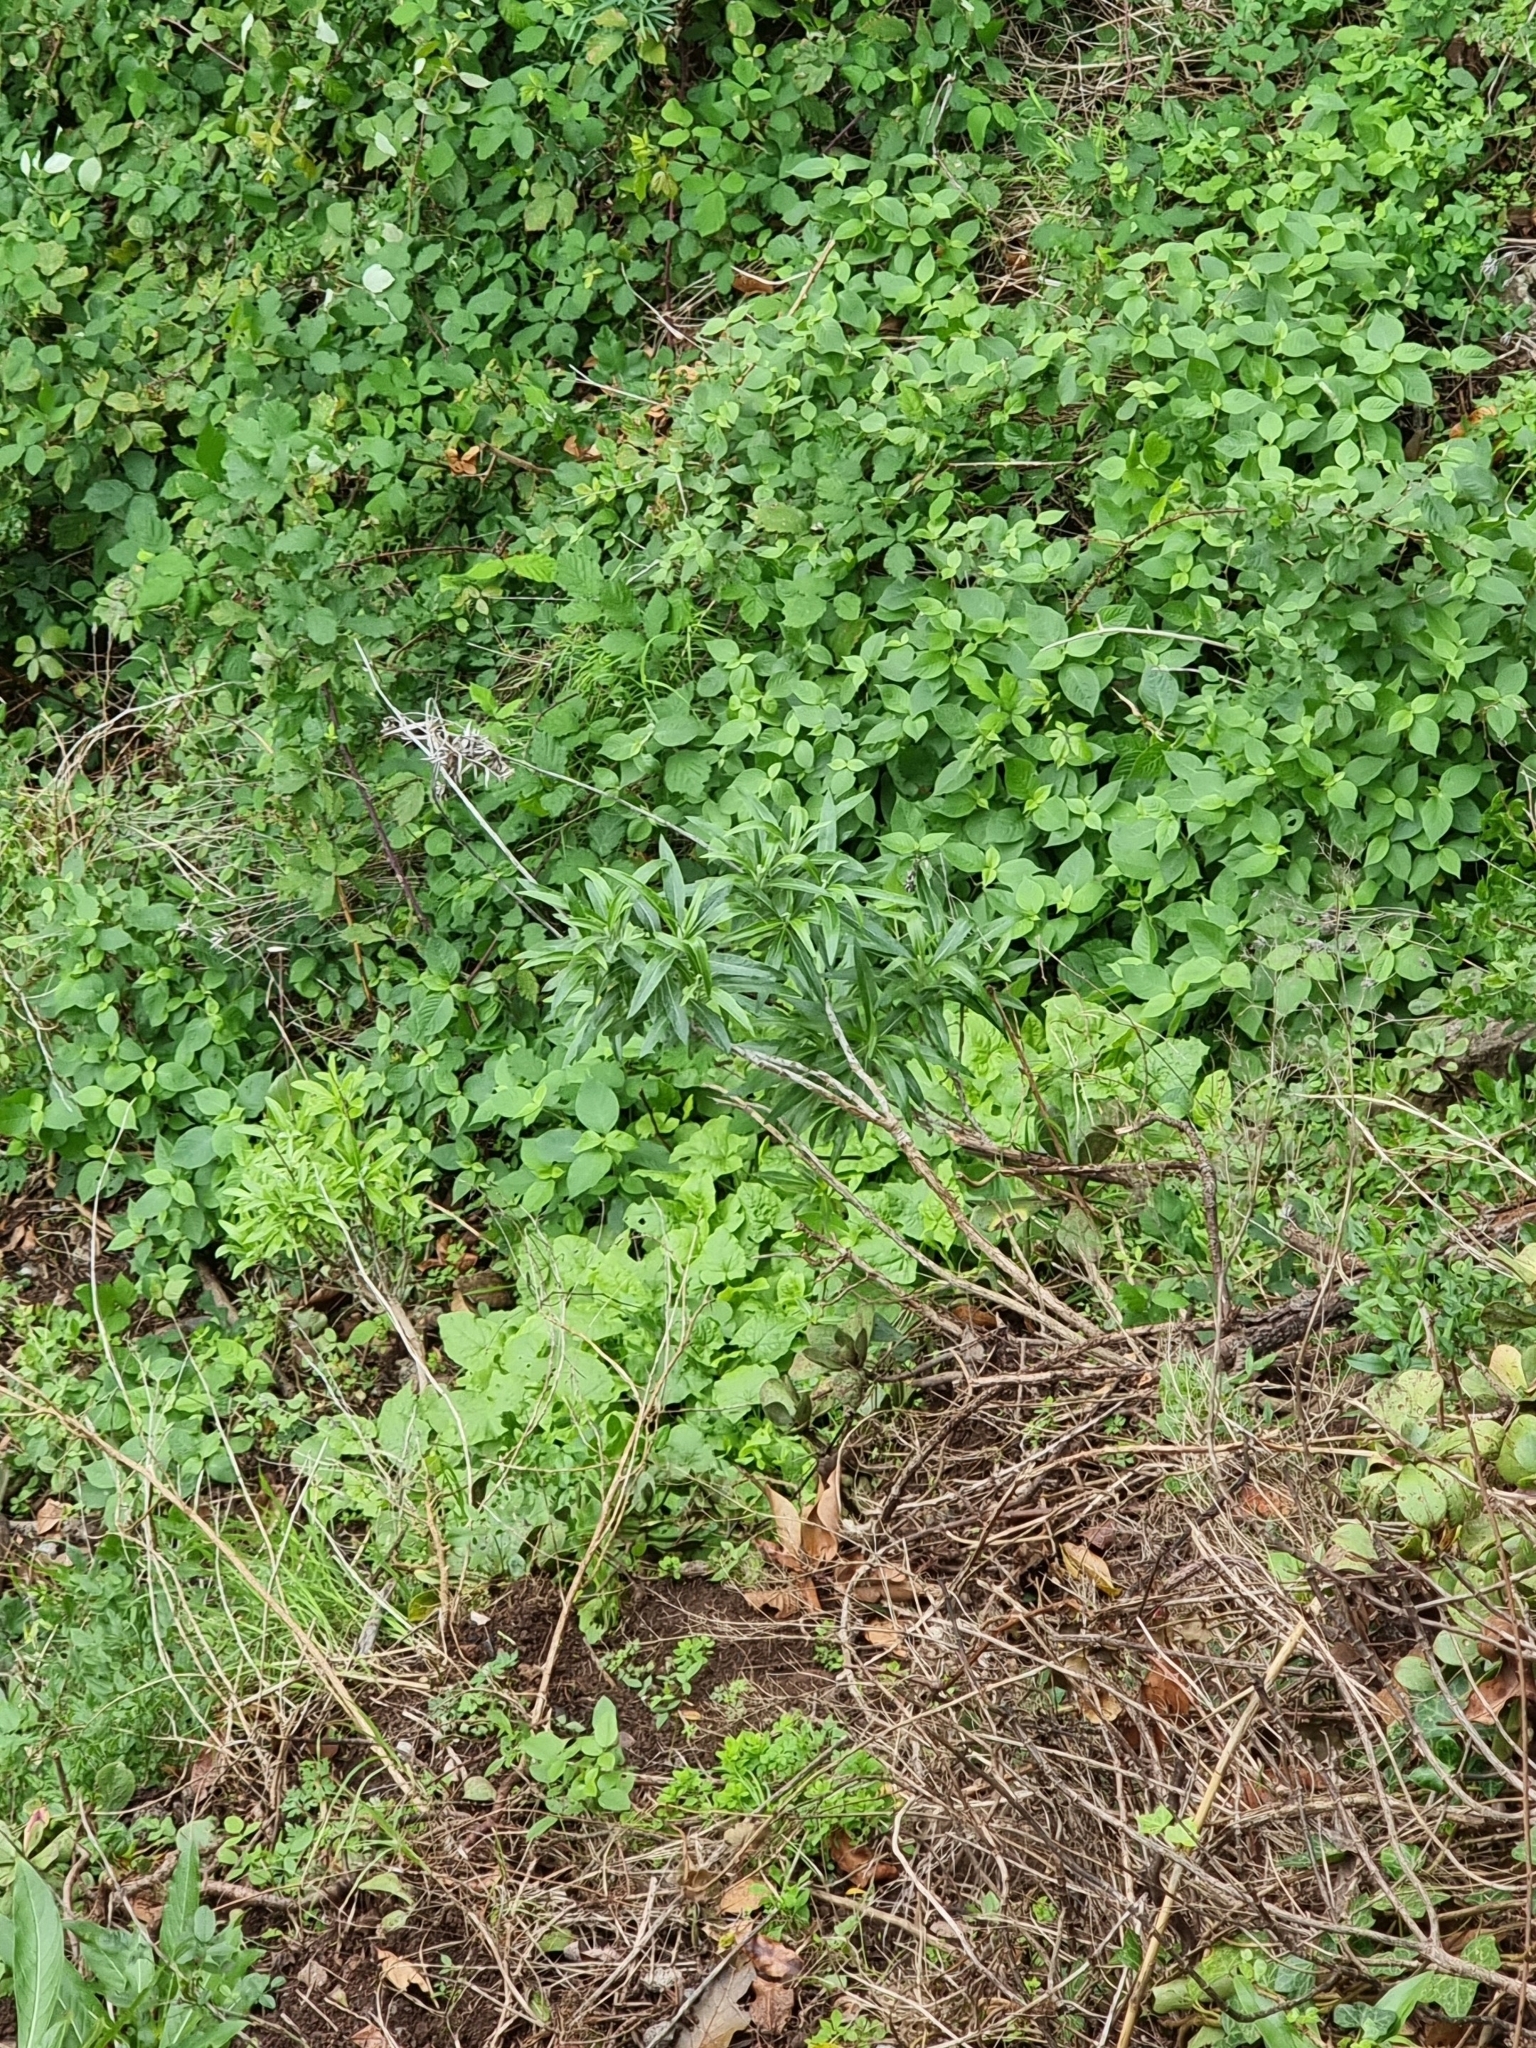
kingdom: Plantae
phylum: Tracheophyta
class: Magnoliopsida
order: Asterales
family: Asteraceae
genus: Carlina
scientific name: Carlina salicifolia
